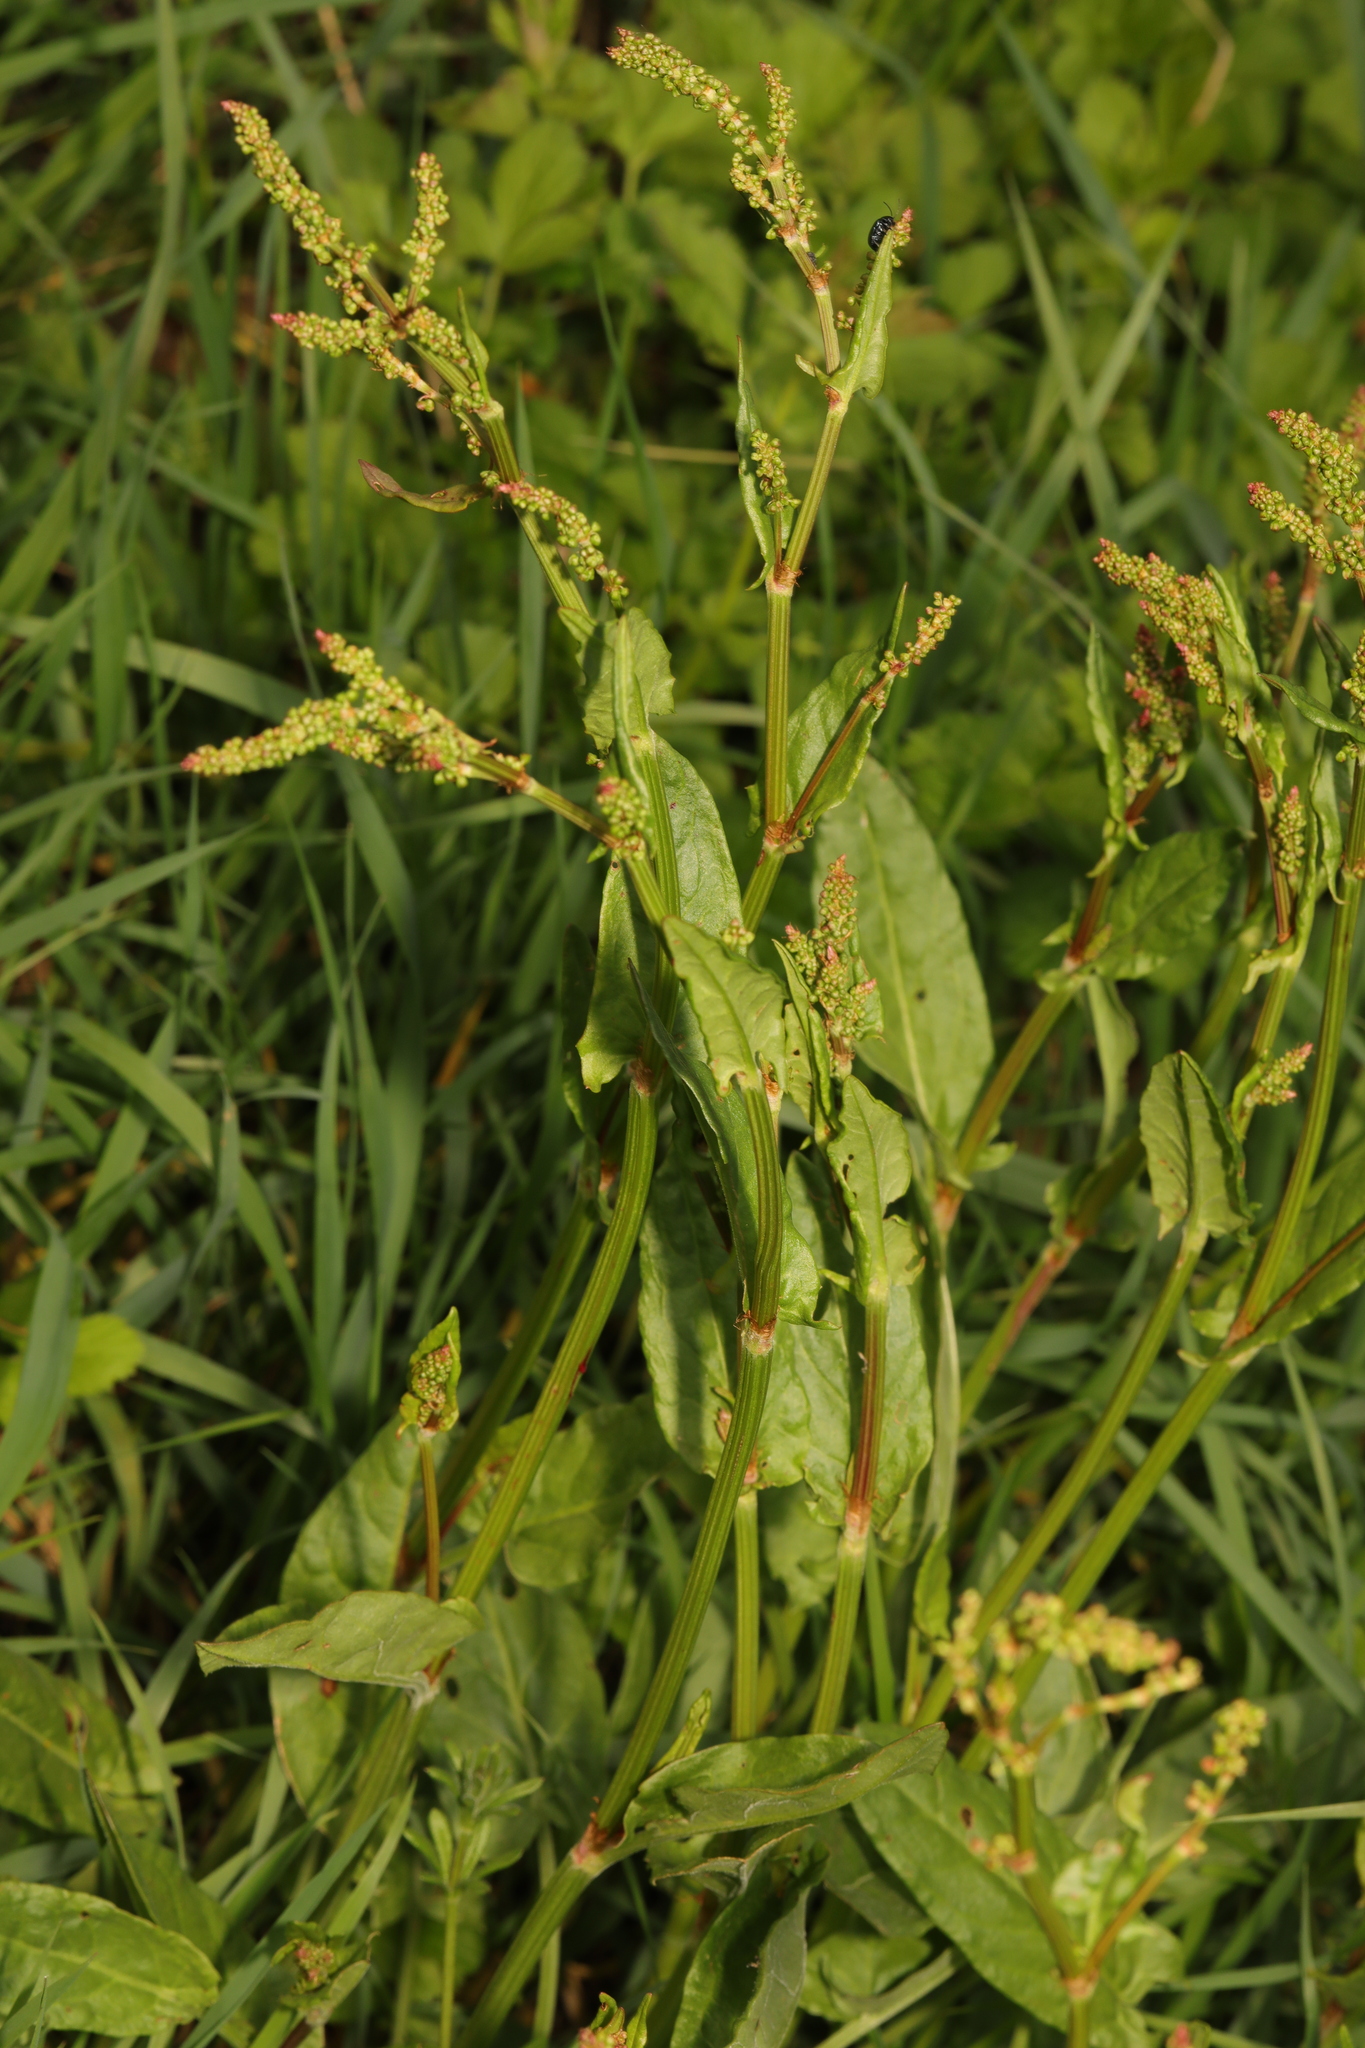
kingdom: Plantae
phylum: Tracheophyta
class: Magnoliopsida
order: Caryophyllales
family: Polygonaceae
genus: Rumex
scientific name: Rumex acetosa
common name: Garden sorrel
